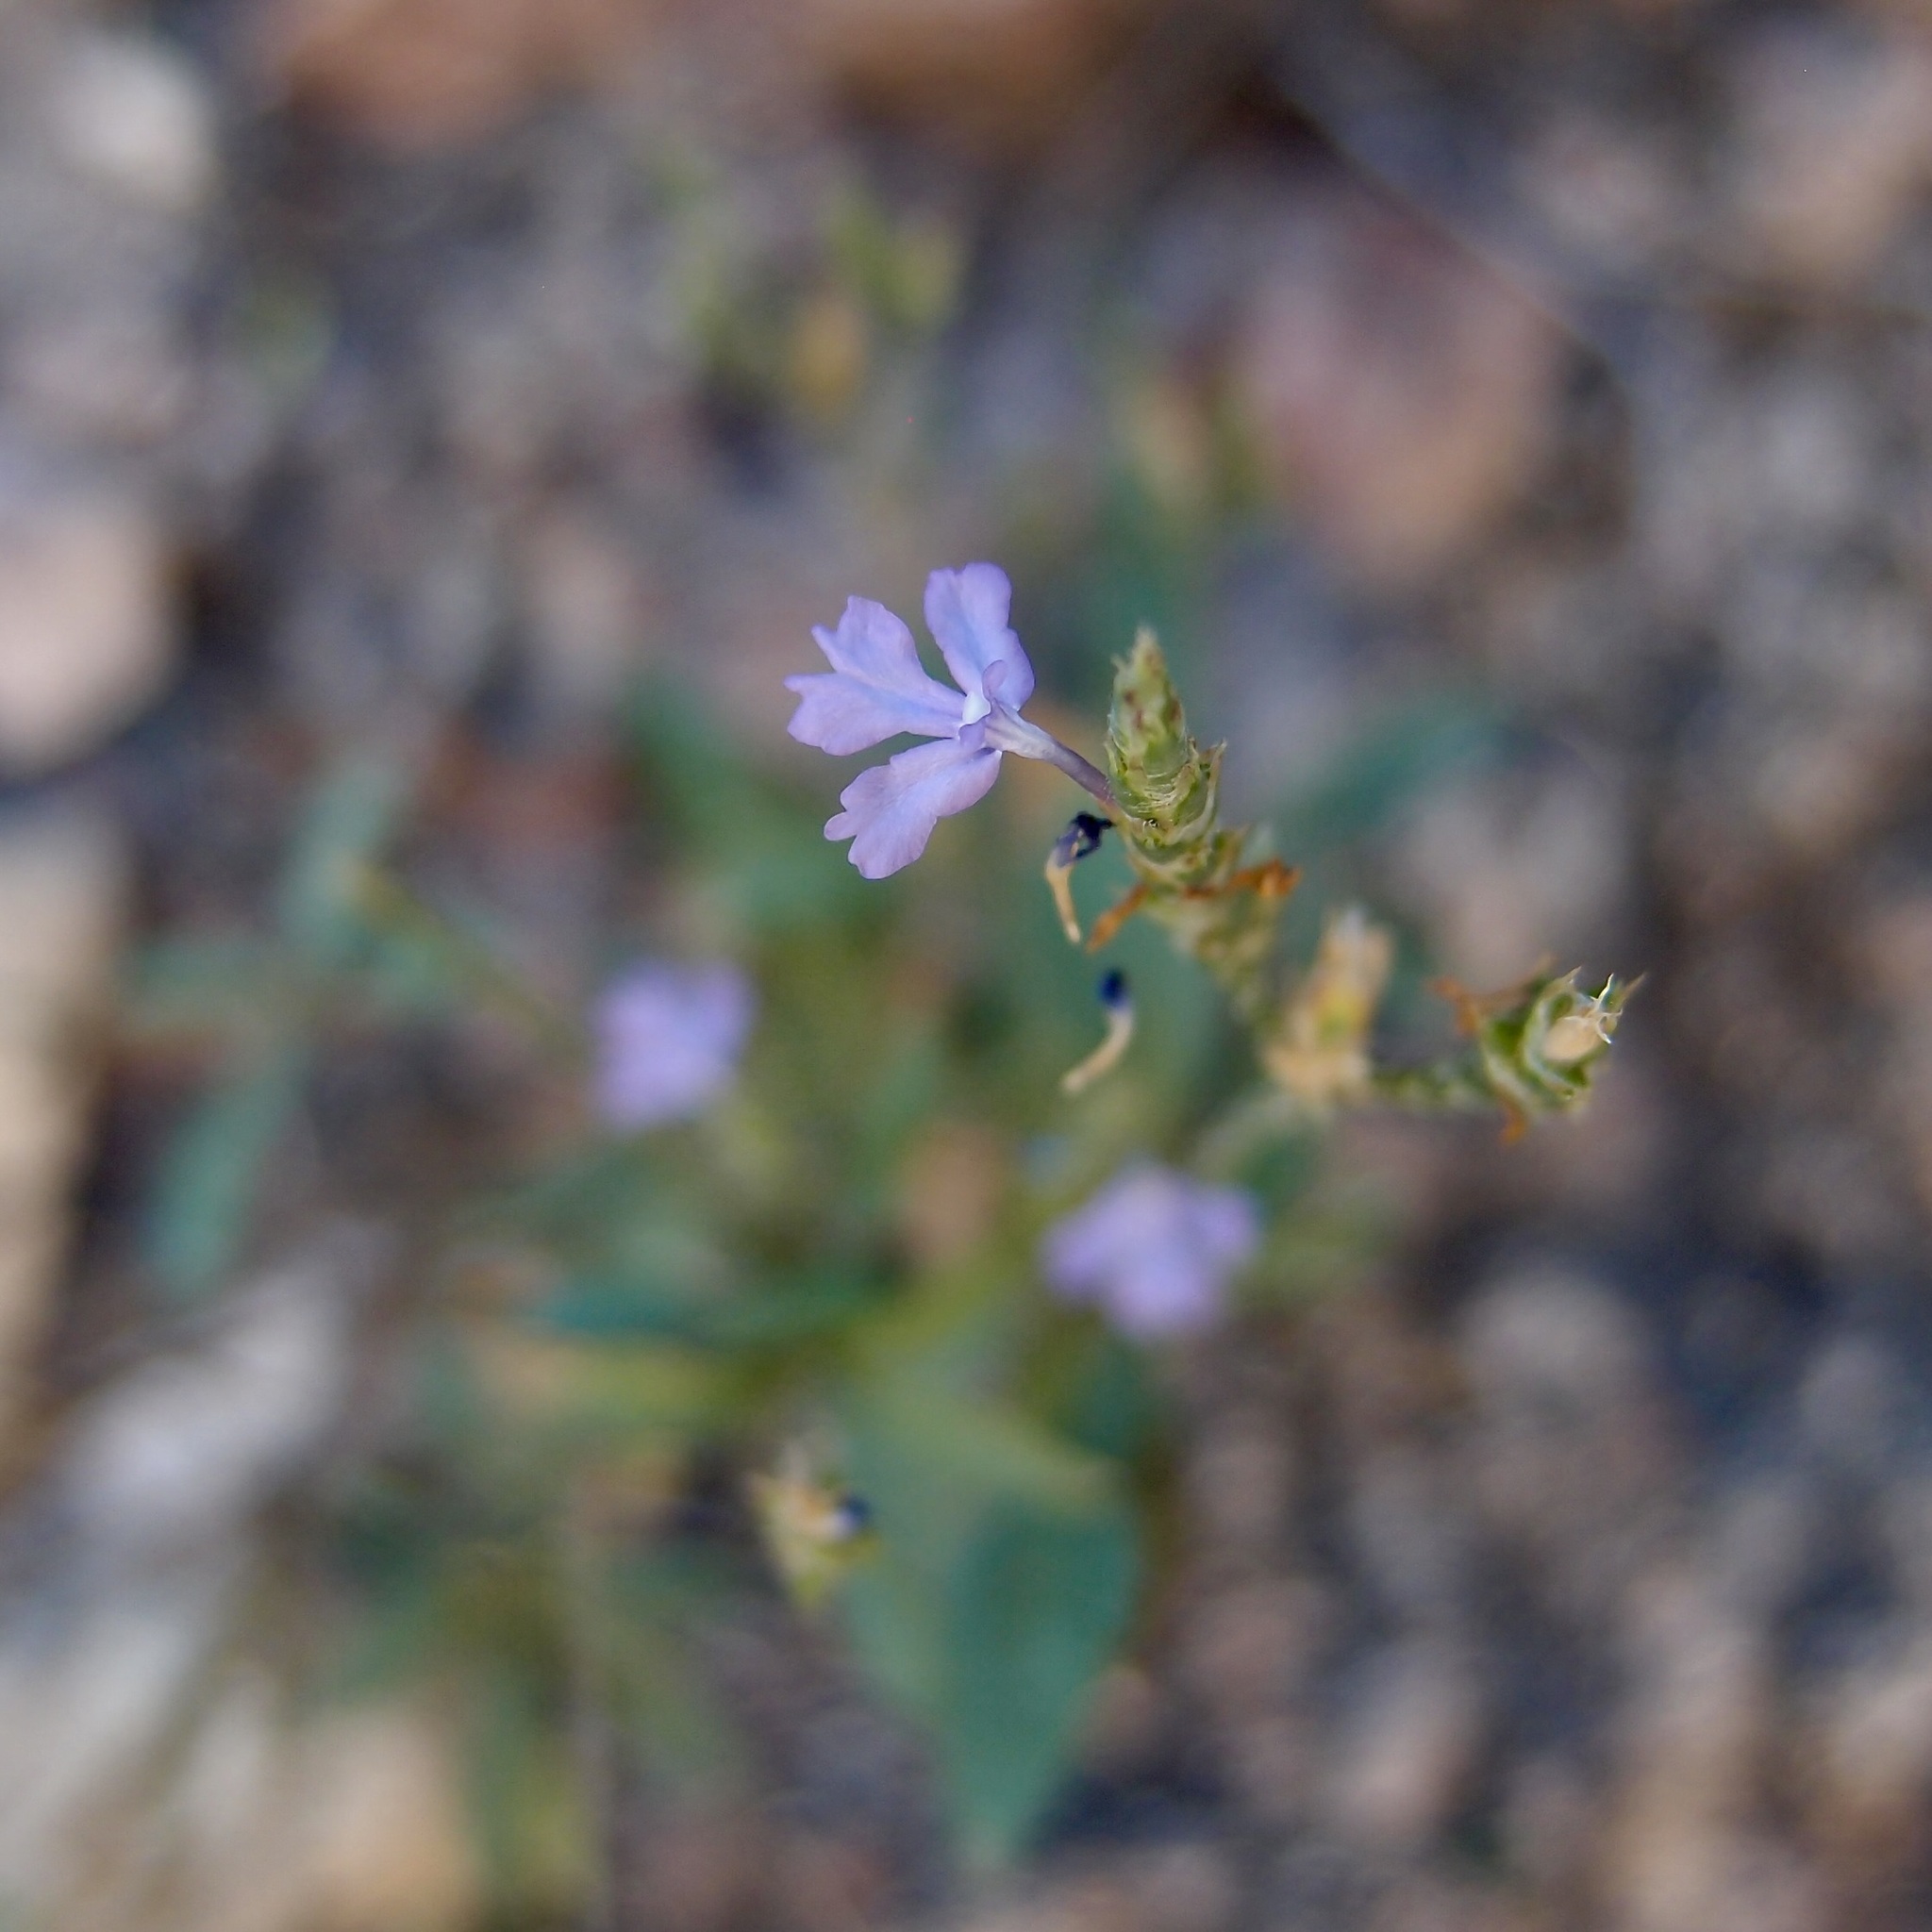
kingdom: Plantae
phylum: Tracheophyta
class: Magnoliopsida
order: Lamiales
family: Acanthaceae
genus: Elytraria
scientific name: Elytraria imbricata
